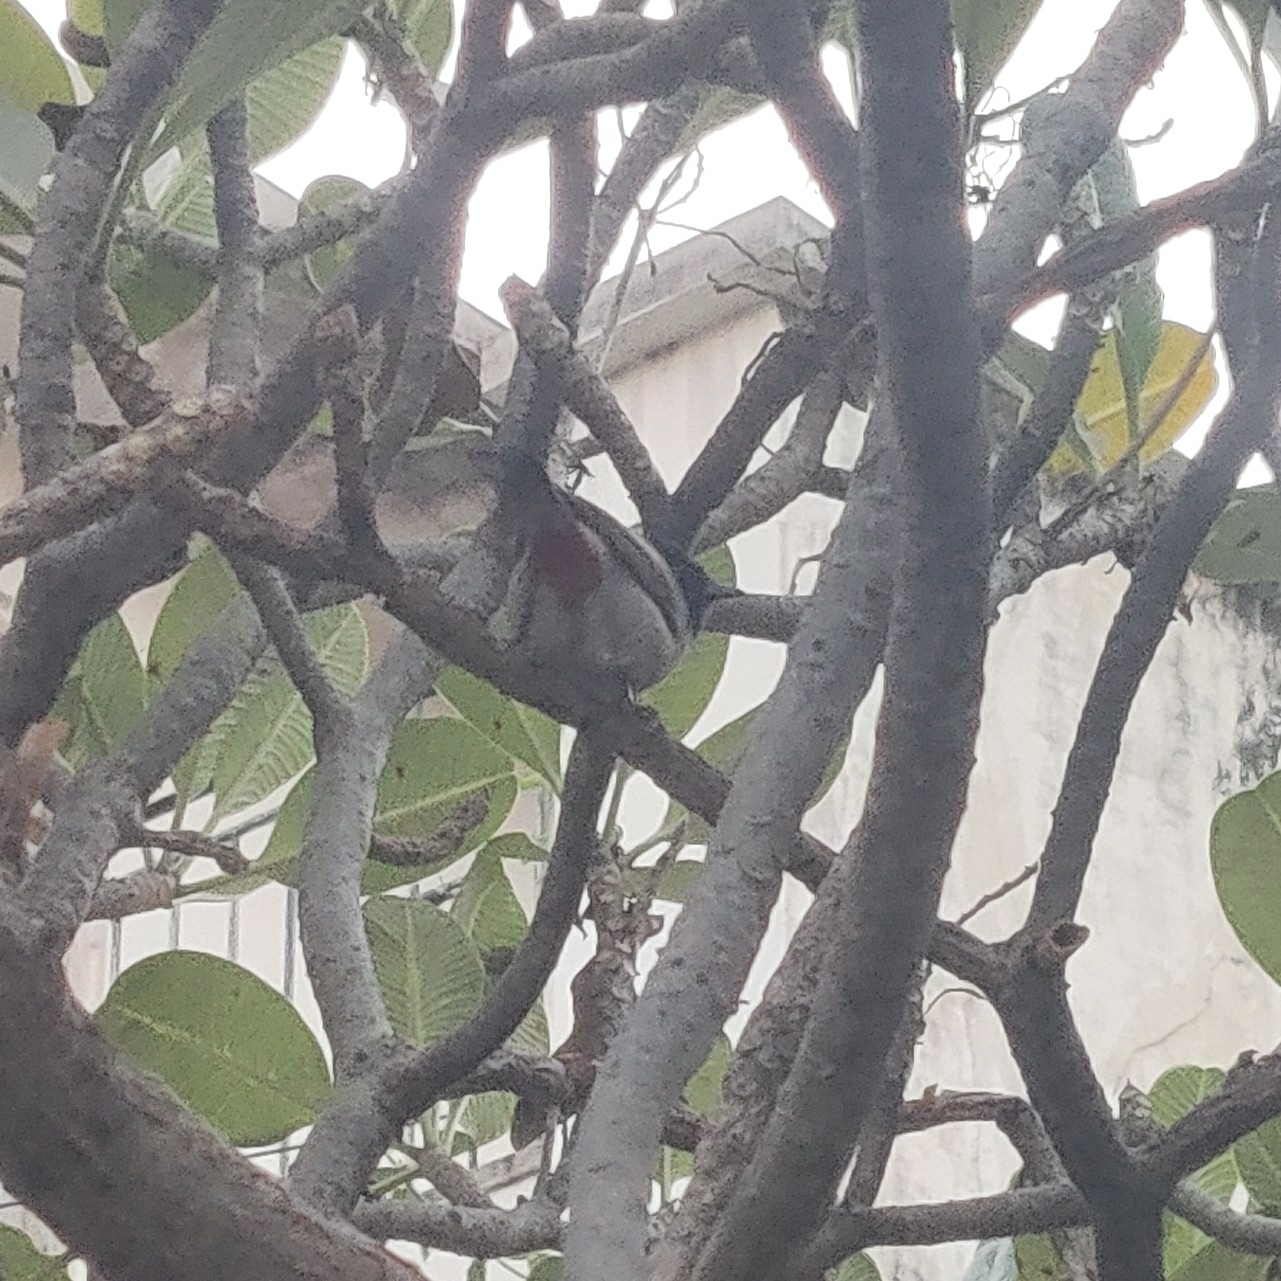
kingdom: Animalia
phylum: Chordata
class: Aves
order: Passeriformes
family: Pycnonotidae
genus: Pycnonotus
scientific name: Pycnonotus cafer
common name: Red-vented bulbul
